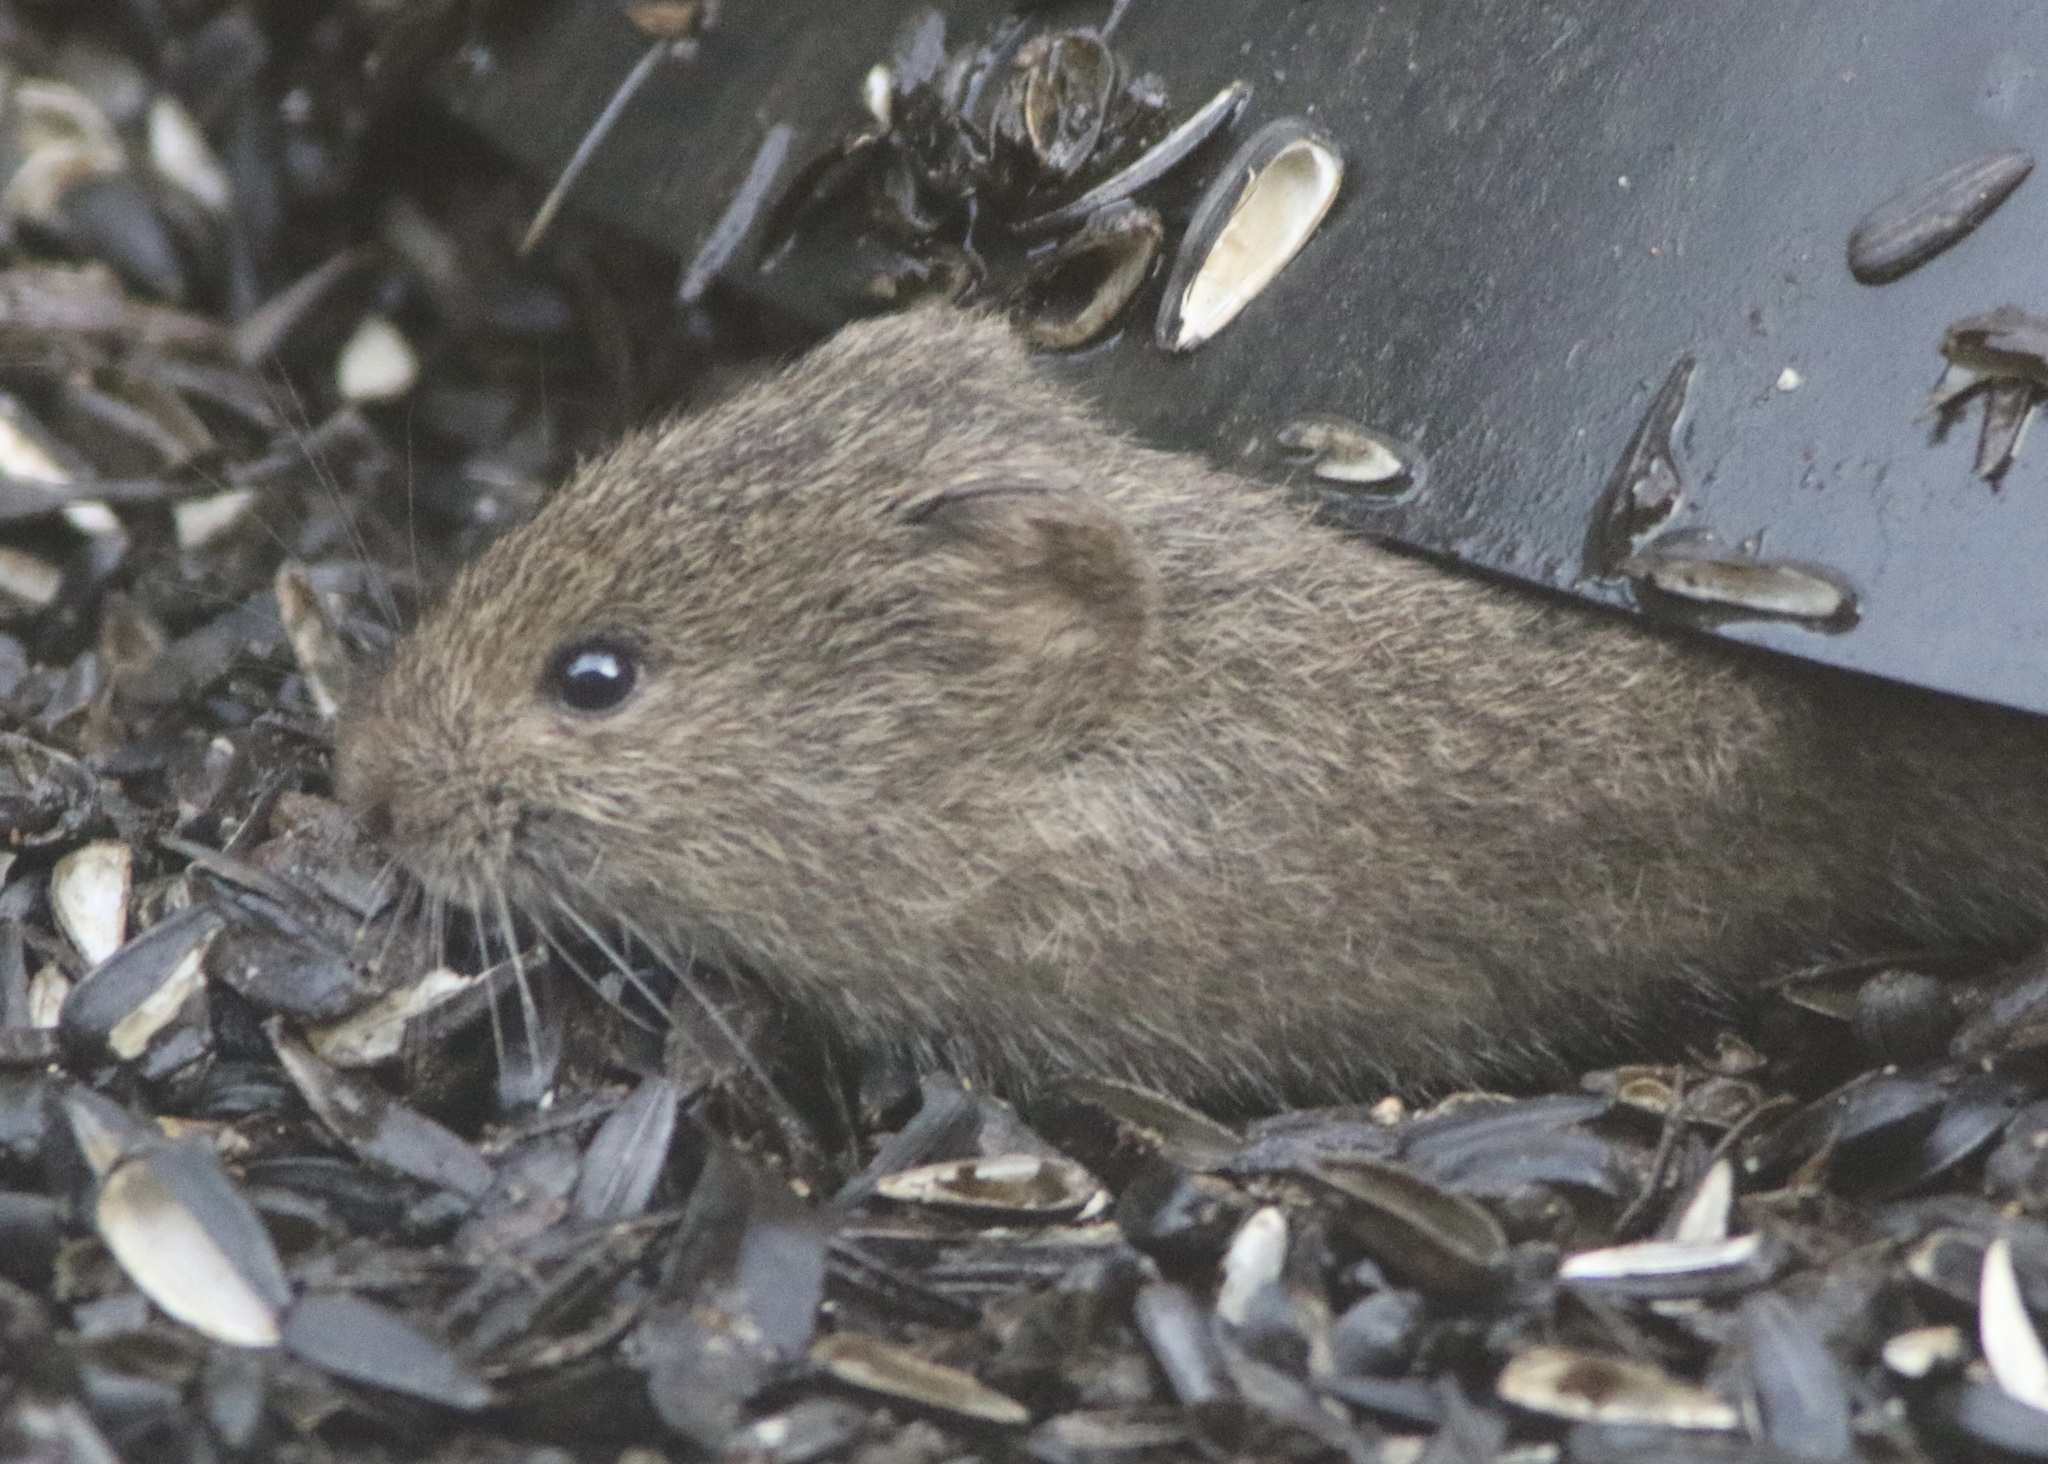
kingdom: Animalia
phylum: Chordata
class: Mammalia
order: Rodentia
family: Cricetidae
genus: Microtus
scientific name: Microtus californicus
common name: California vole
